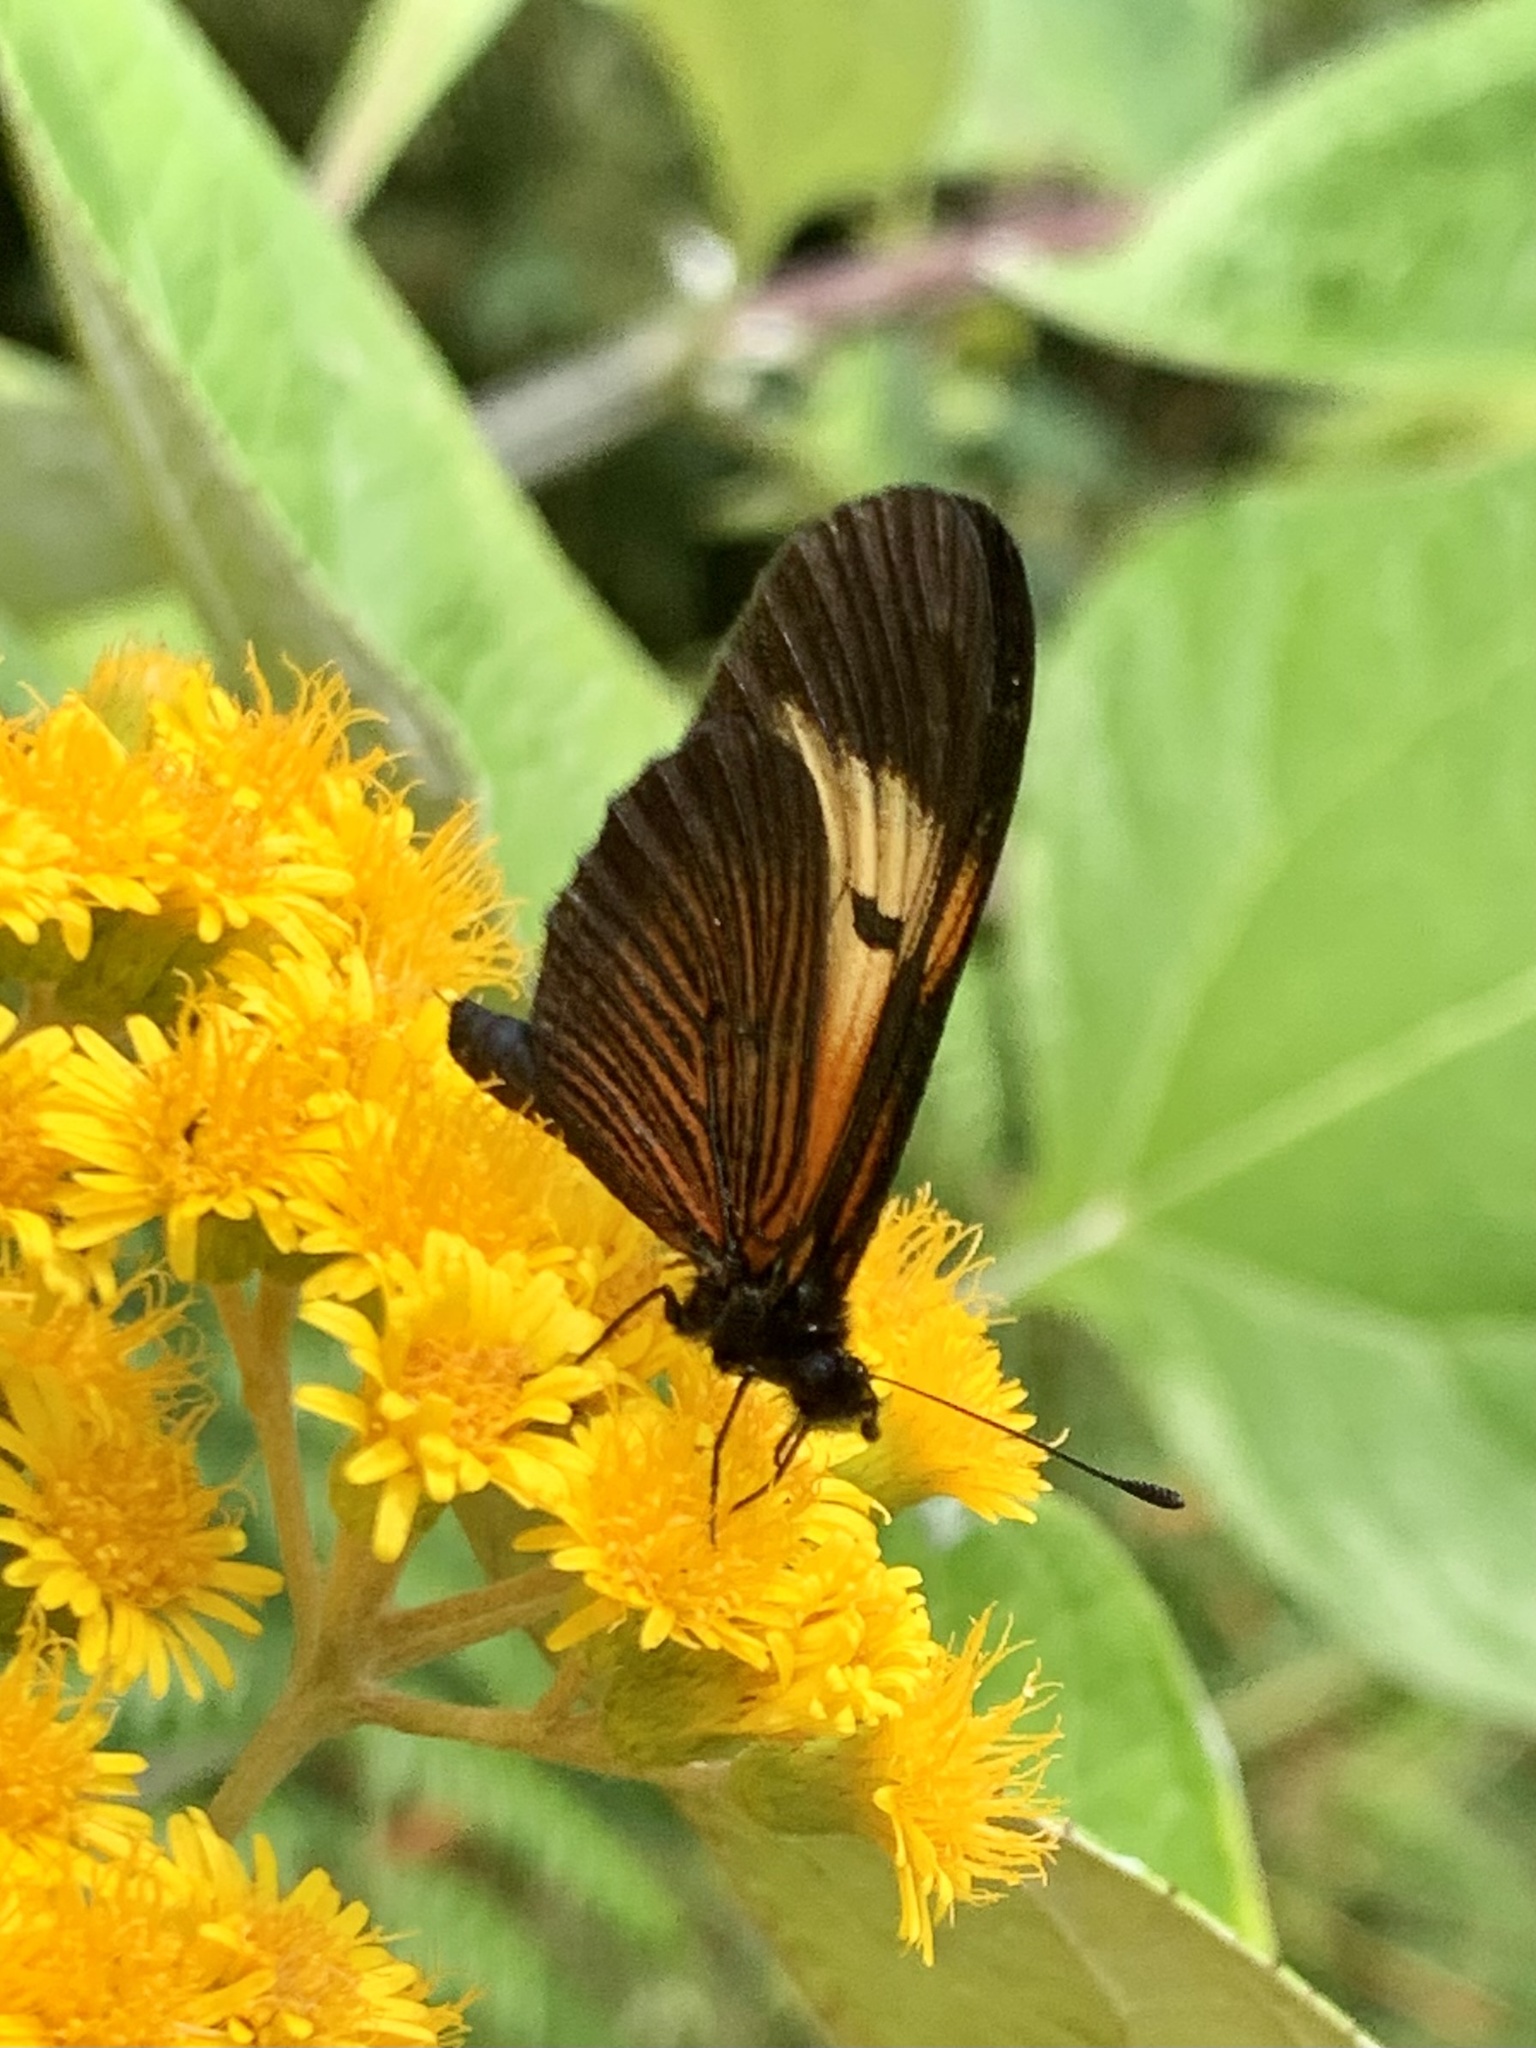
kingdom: Animalia
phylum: Arthropoda
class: Insecta
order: Lepidoptera
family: Nymphalidae
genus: Actinote
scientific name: Actinote stratonice
